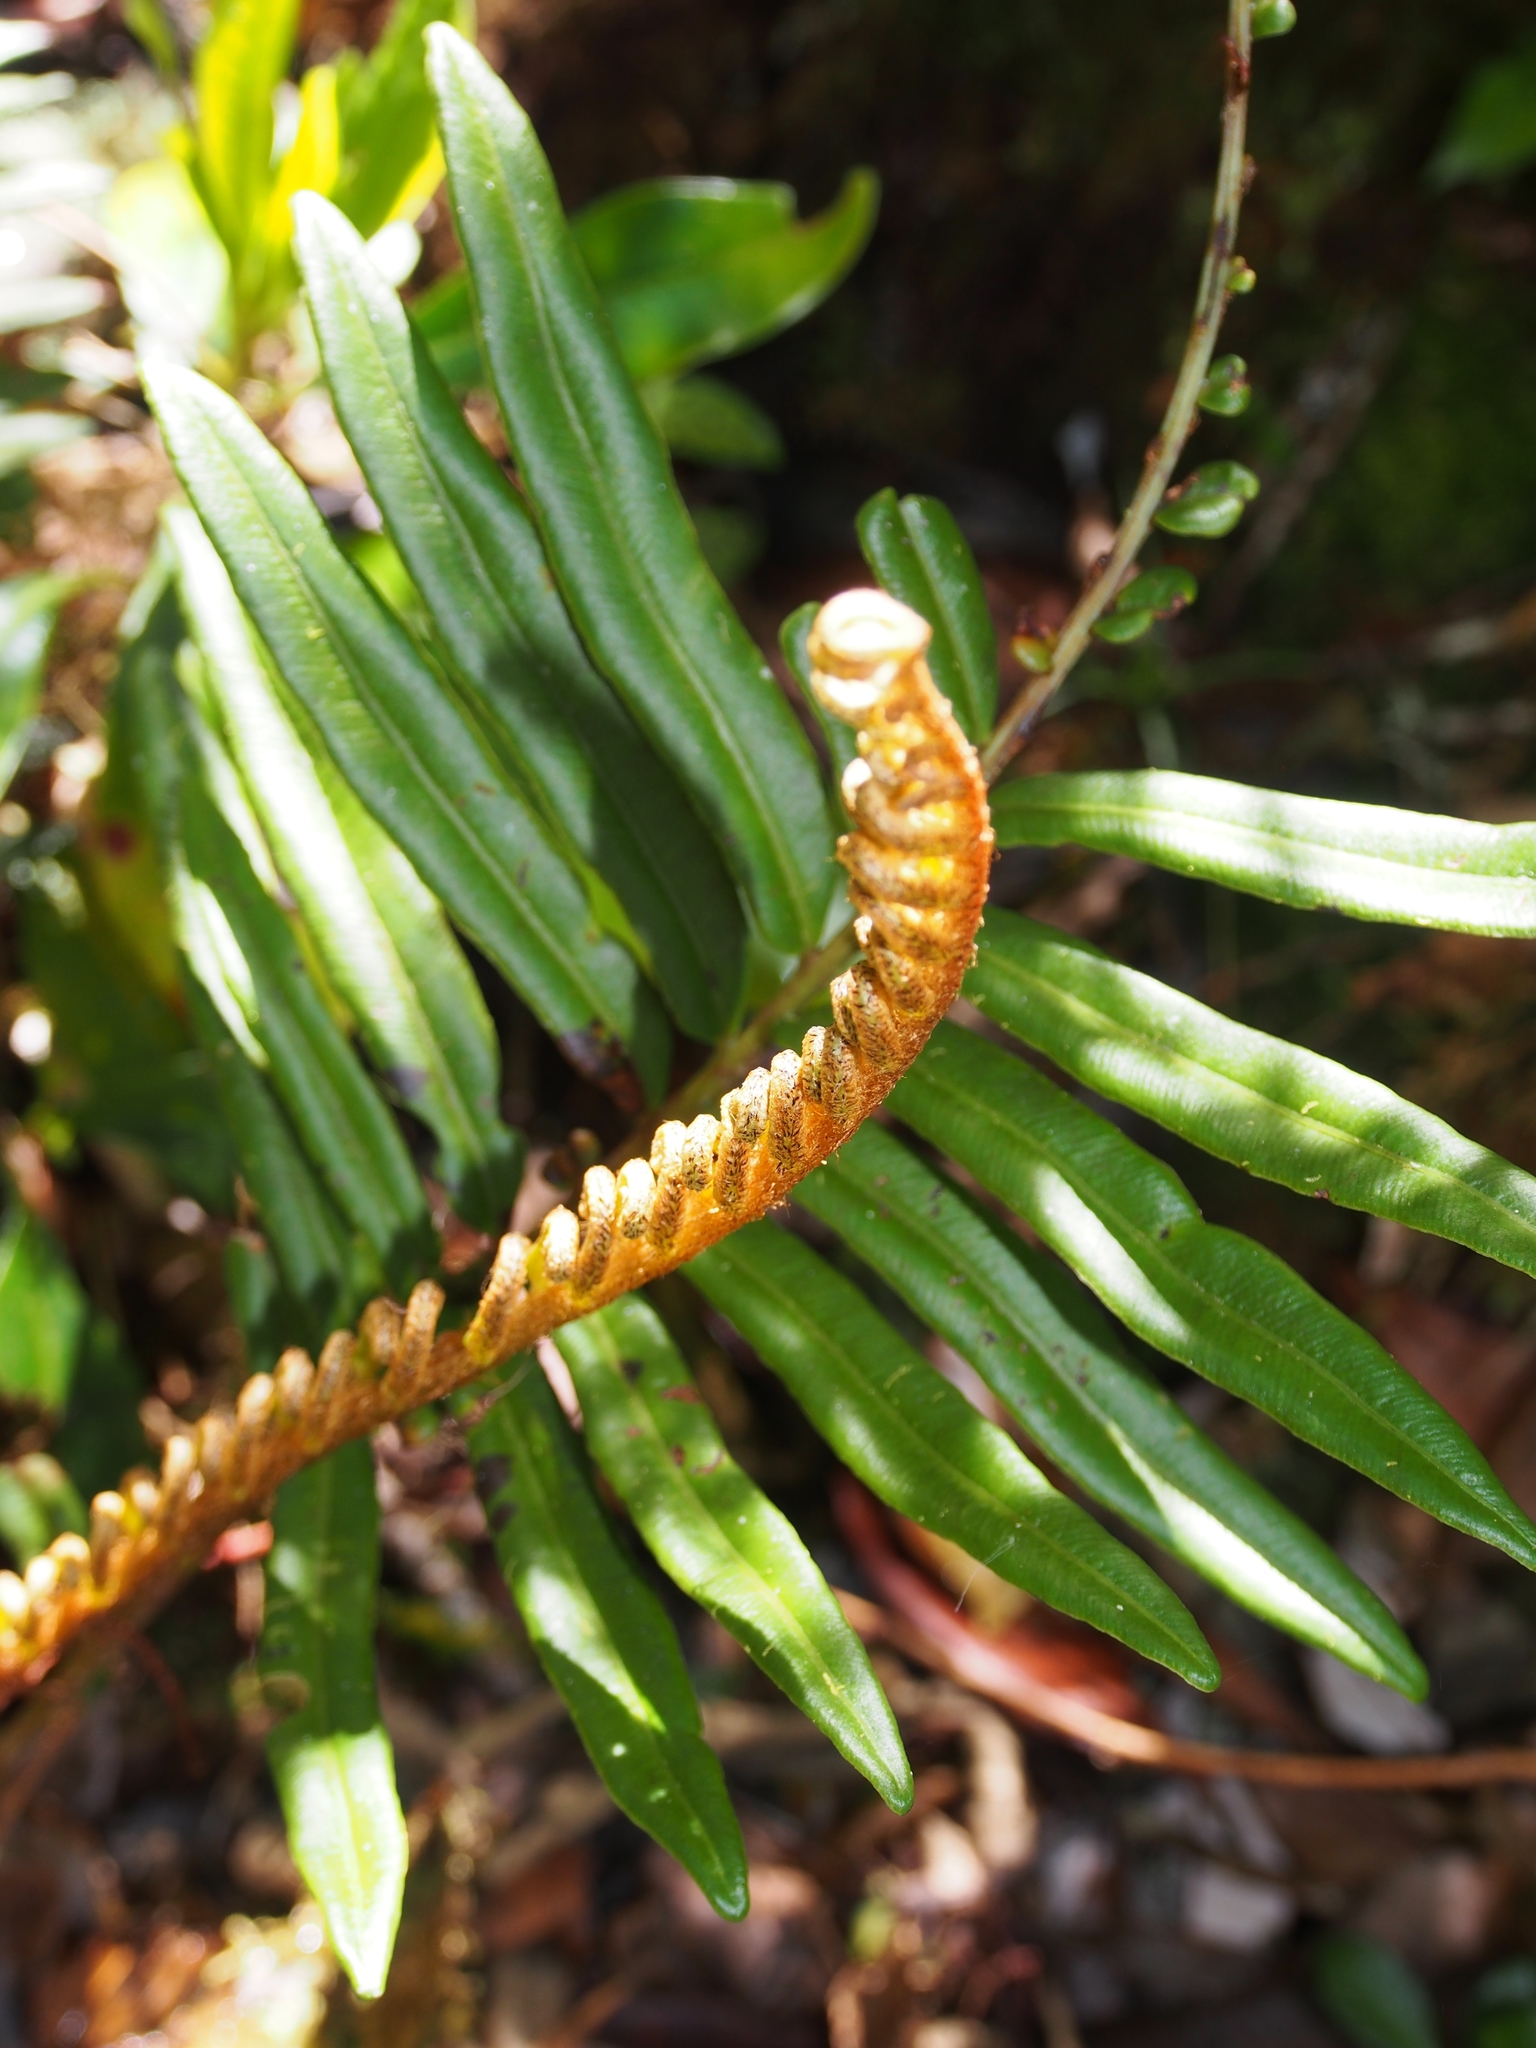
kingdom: Plantae
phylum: Tracheophyta
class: Polypodiopsida
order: Polypodiales
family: Blechnaceae
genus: Parablechnum
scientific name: Parablechnum chiriquanum
